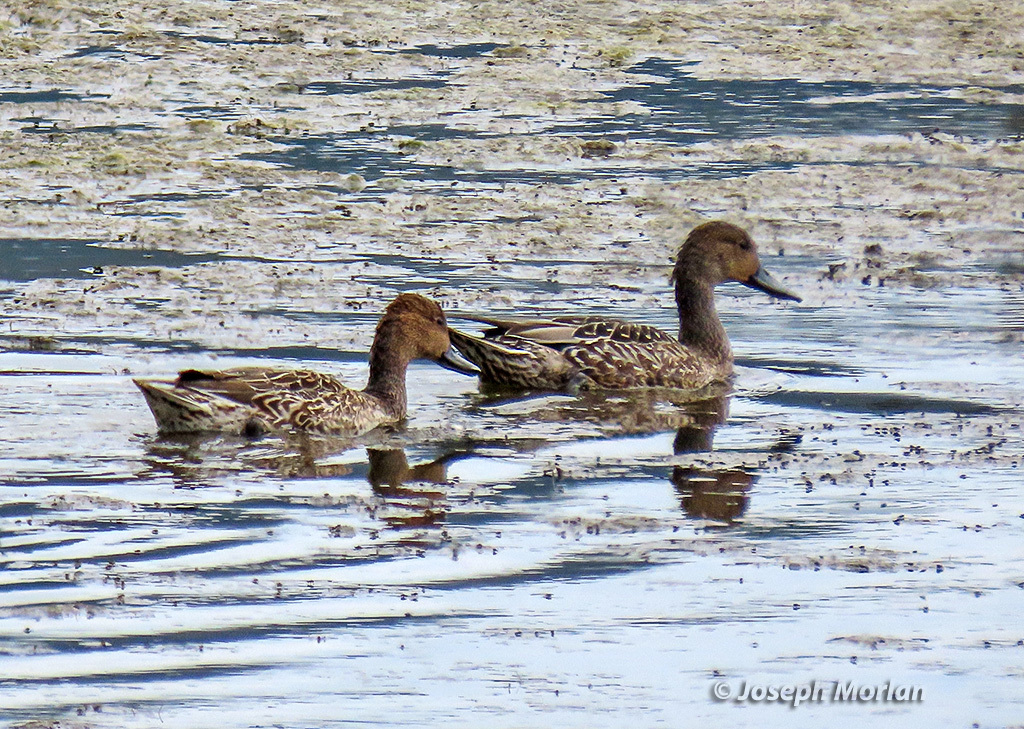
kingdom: Animalia
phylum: Chordata
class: Aves
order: Anseriformes
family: Anatidae
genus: Anas
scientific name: Anas acuta
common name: Northern pintail
